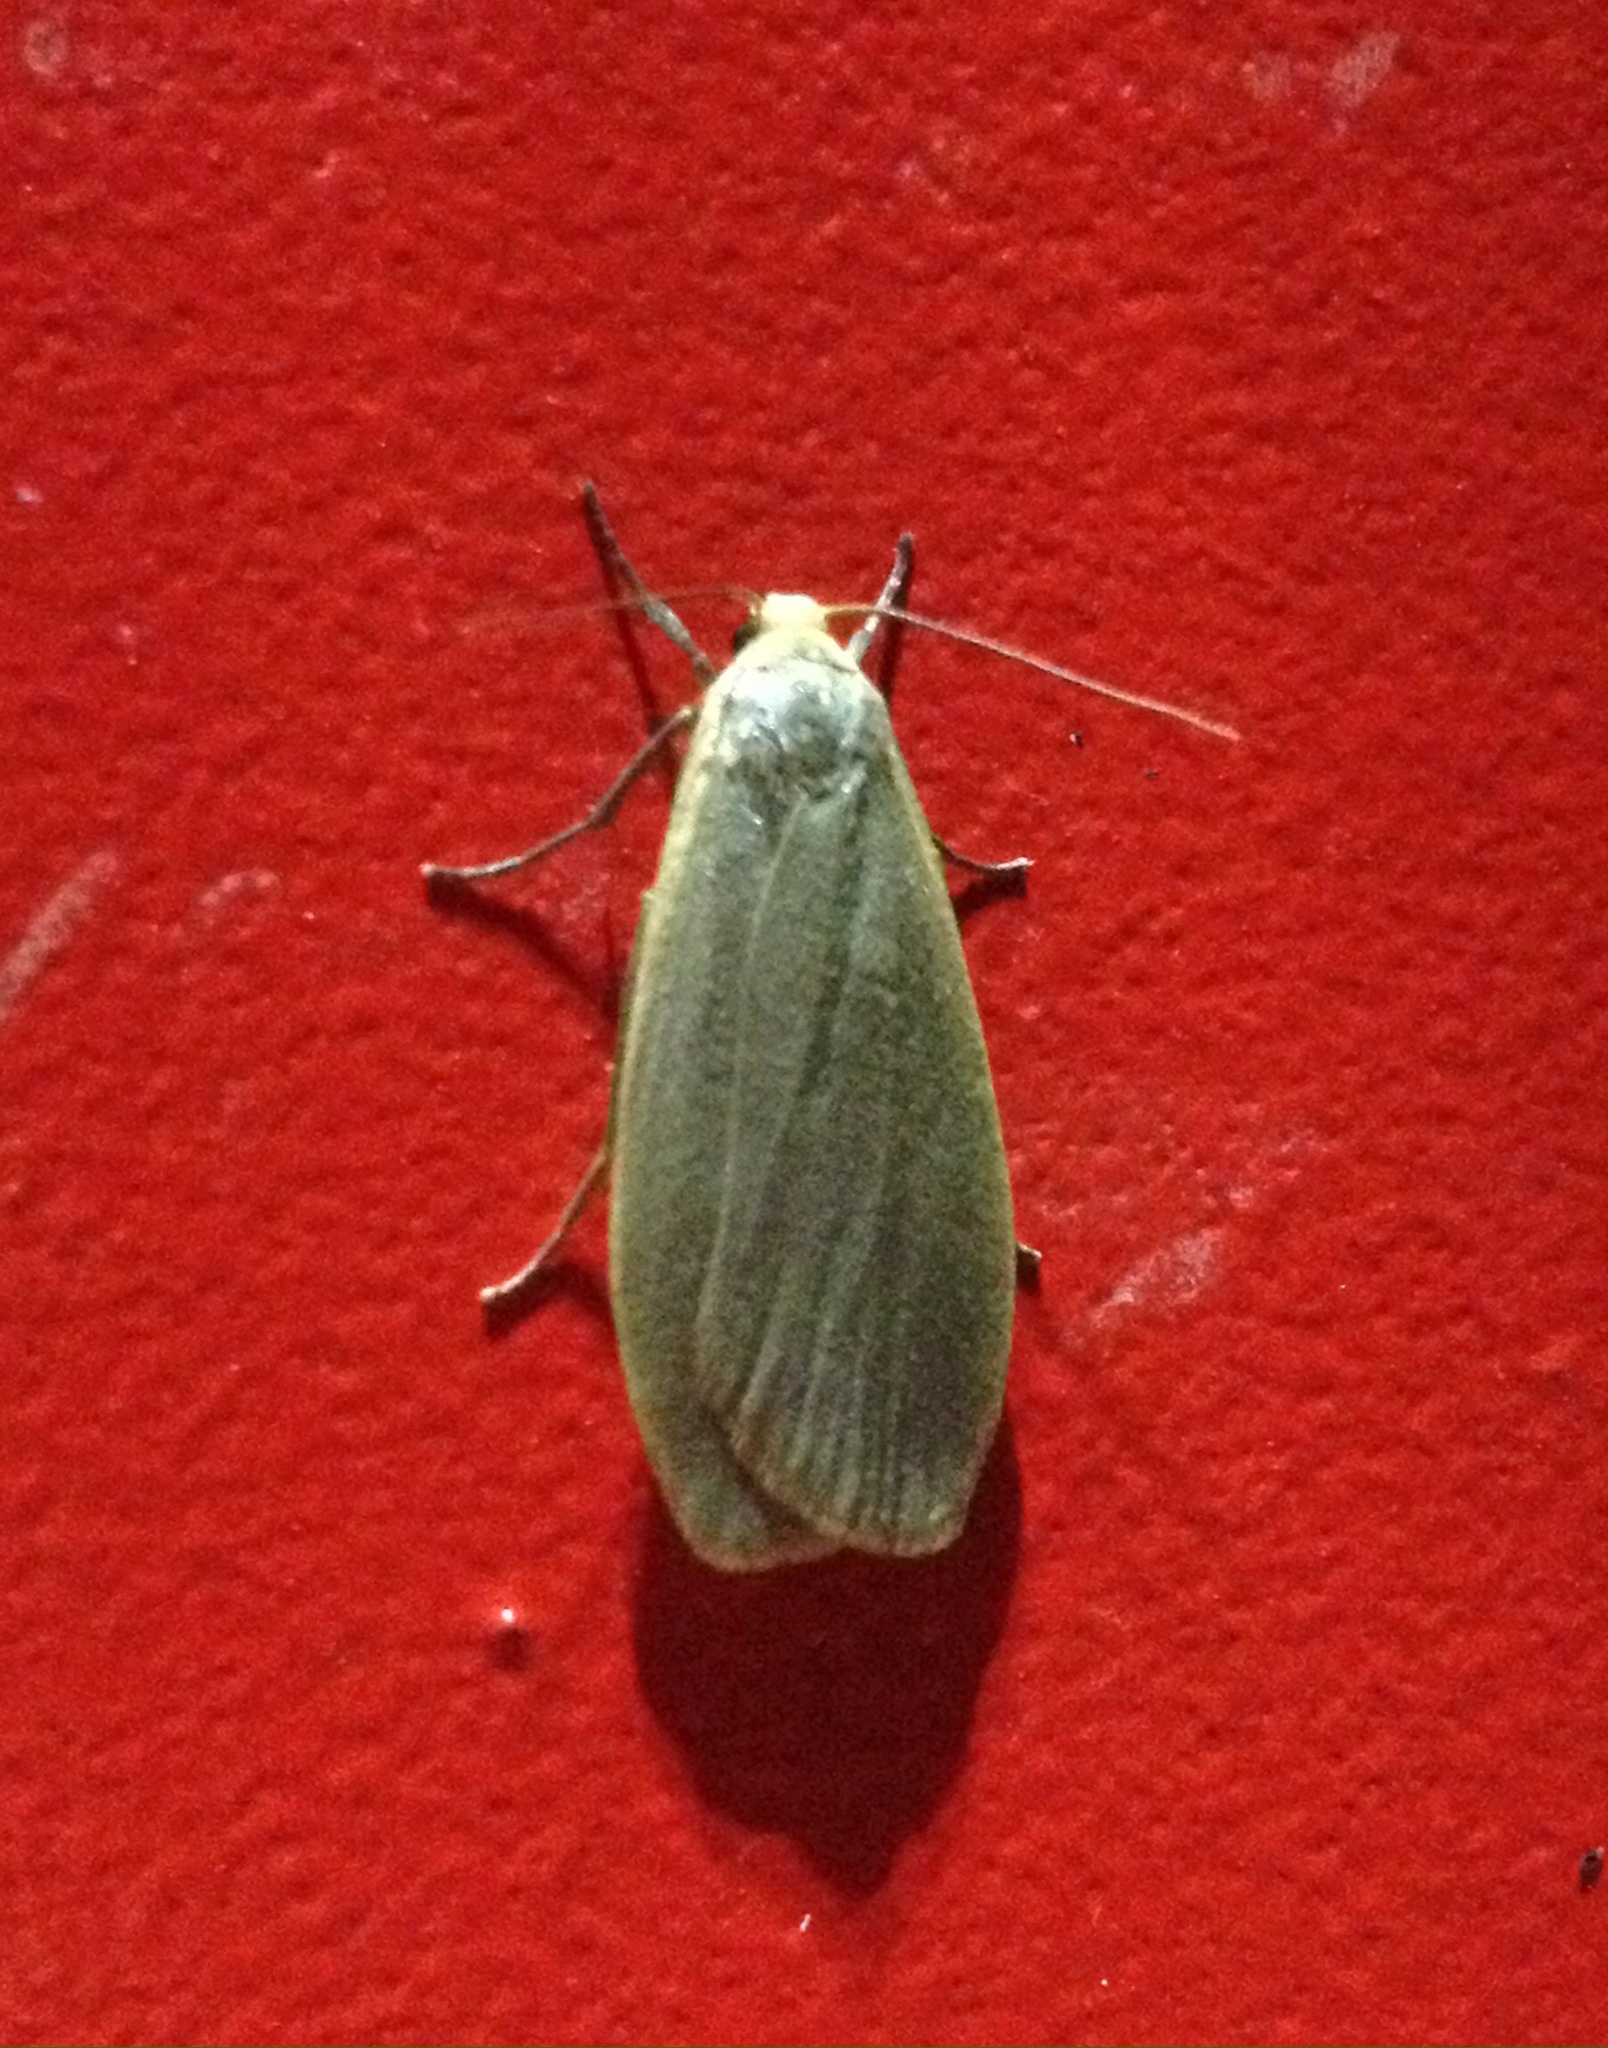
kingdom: Animalia
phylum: Arthropoda
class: Insecta
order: Lepidoptera
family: Erebidae
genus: Collita
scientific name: Collita griseola
